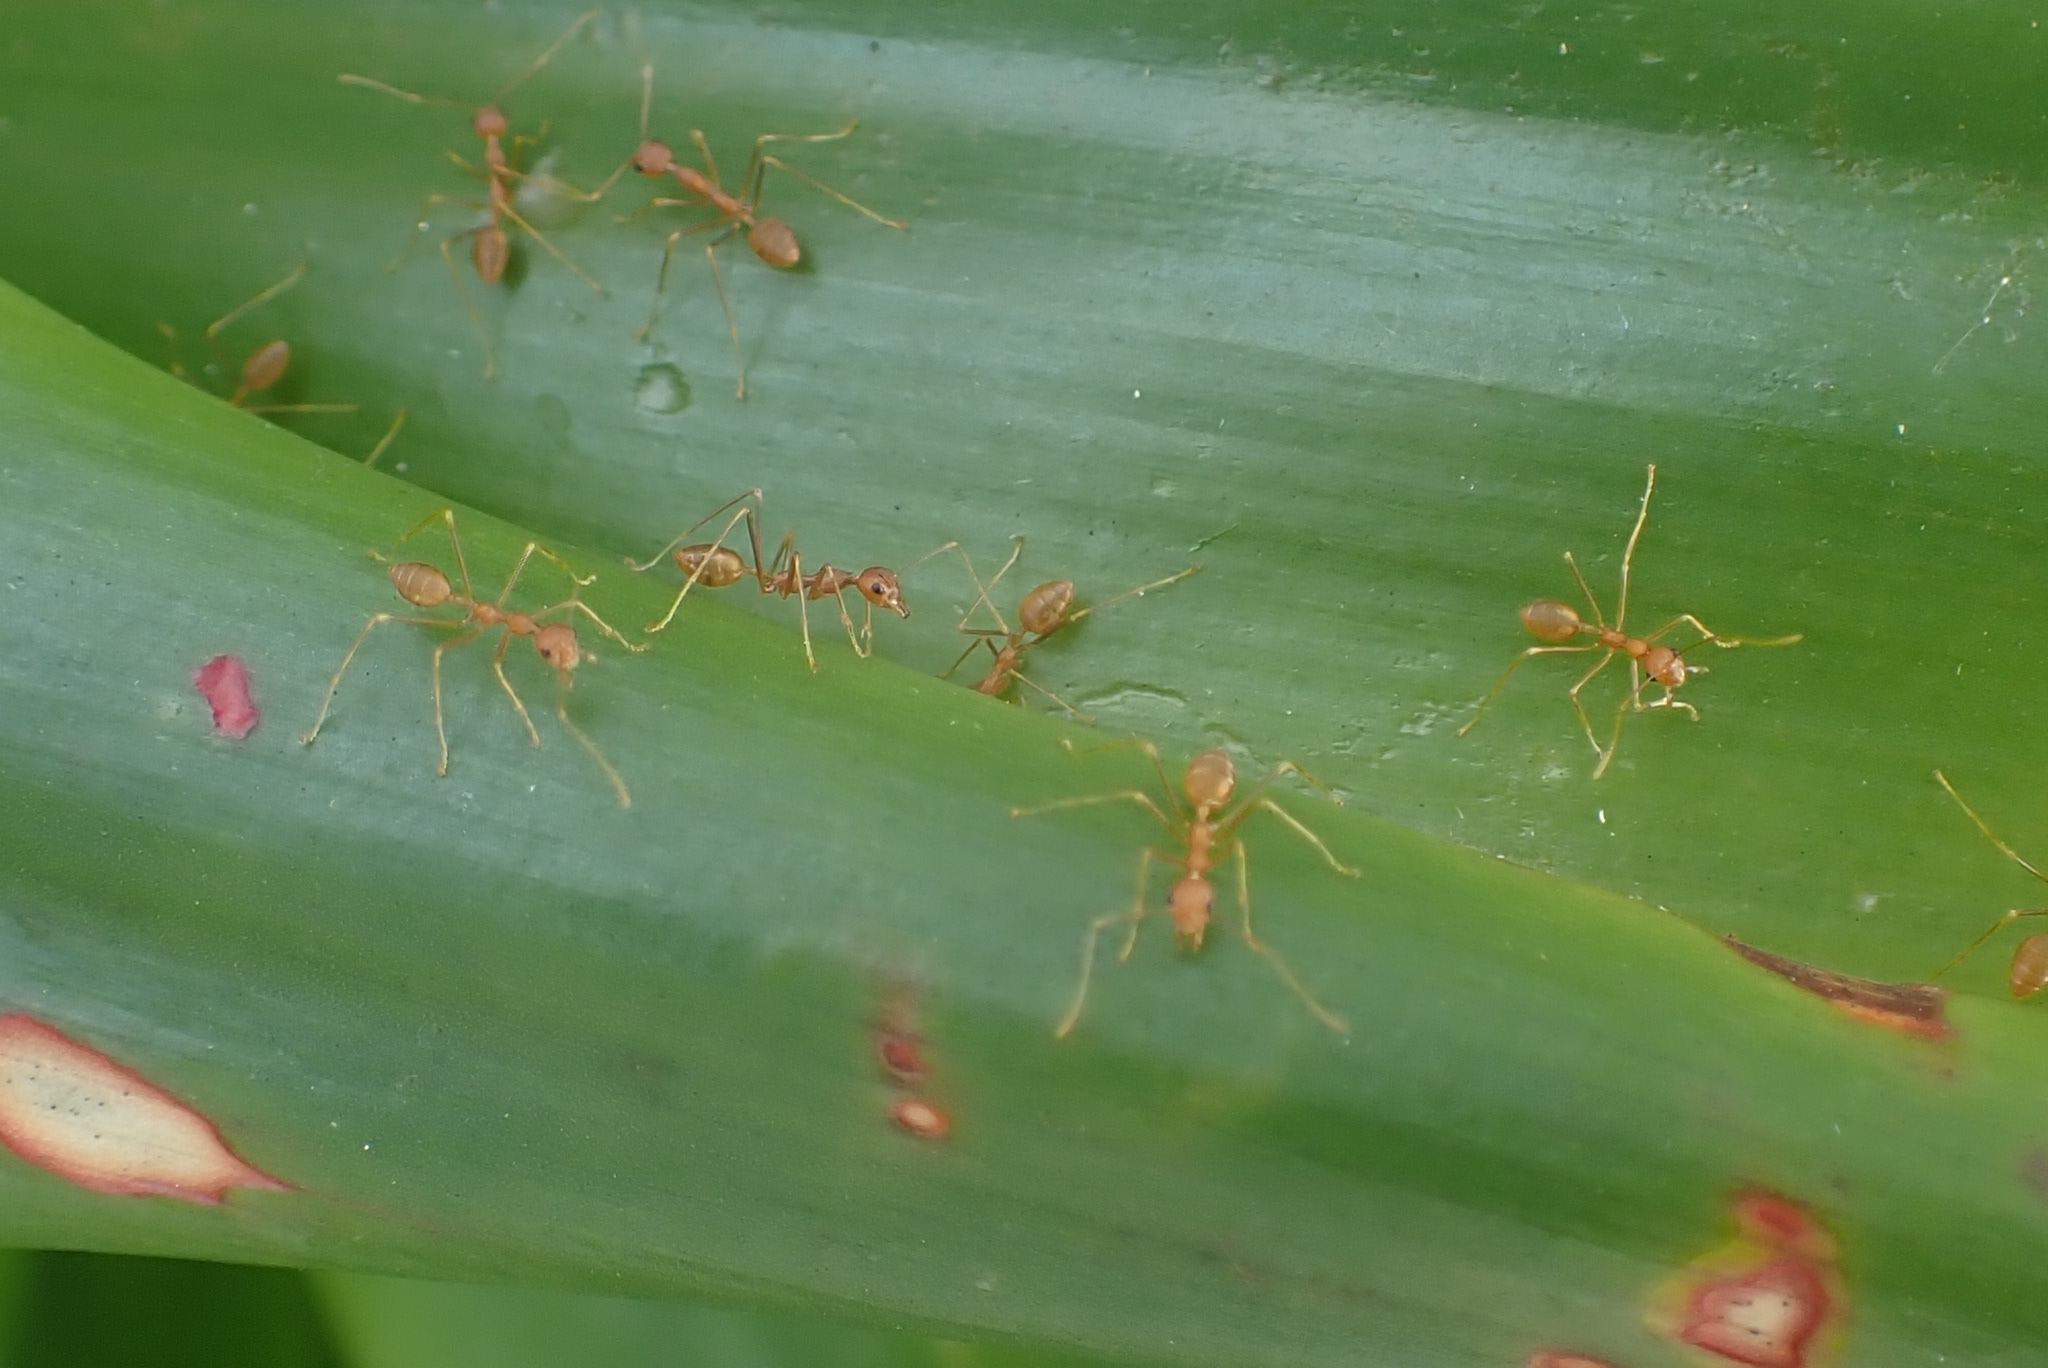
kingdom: Animalia
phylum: Arthropoda
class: Insecta
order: Hymenoptera
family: Formicidae
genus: Oecophylla
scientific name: Oecophylla smaragdina
